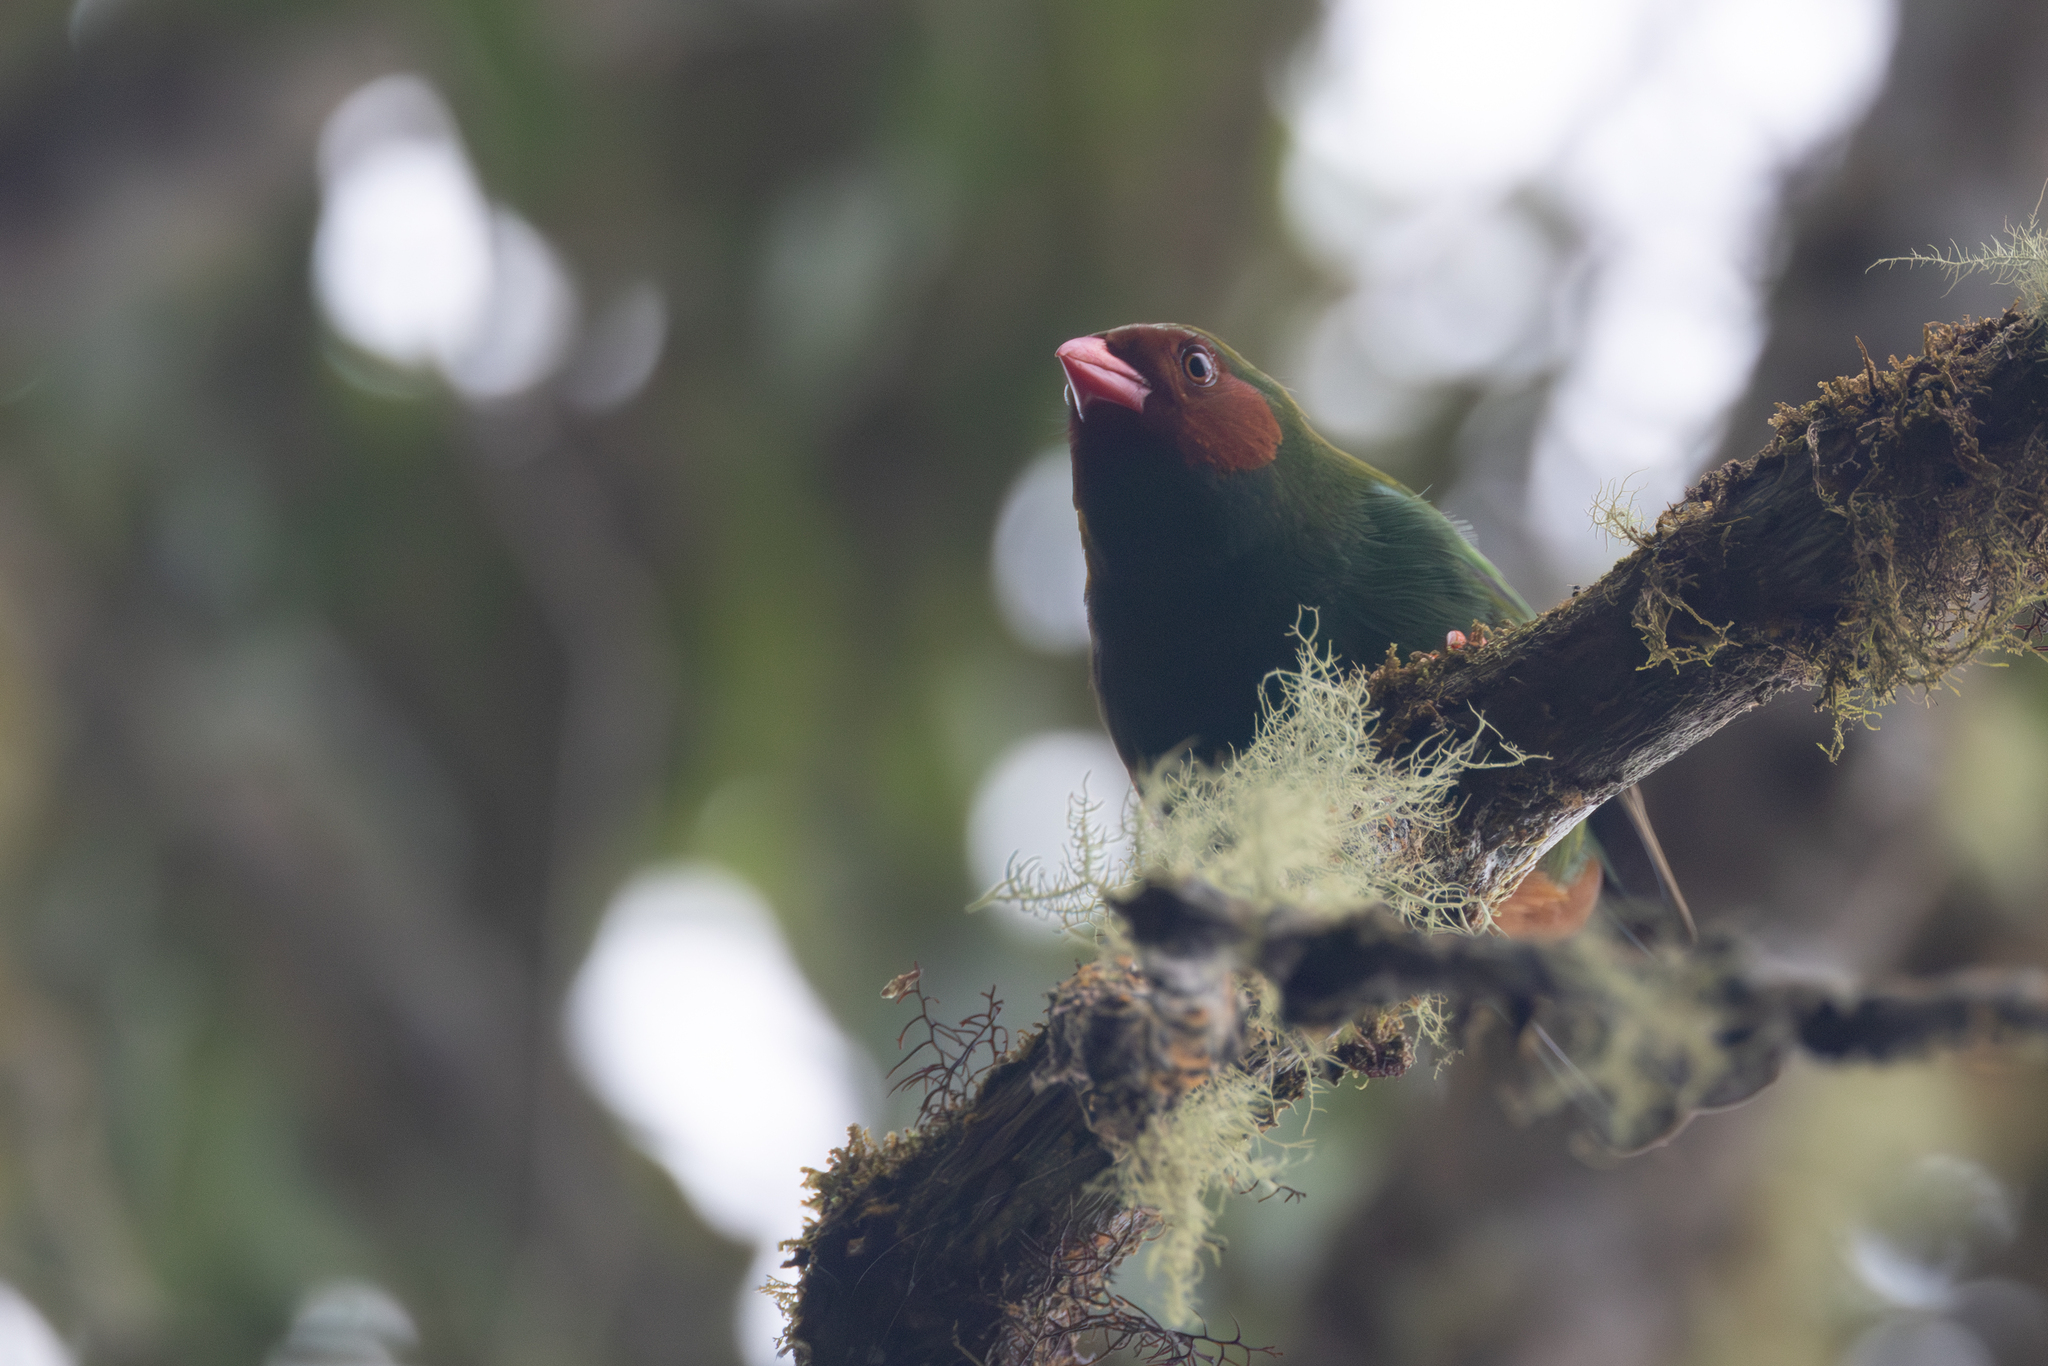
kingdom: Animalia
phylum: Chordata
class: Aves
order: Passeriformes
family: Thraupidae
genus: Chlorornis
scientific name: Chlorornis riefferii
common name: Grass-green tanager
